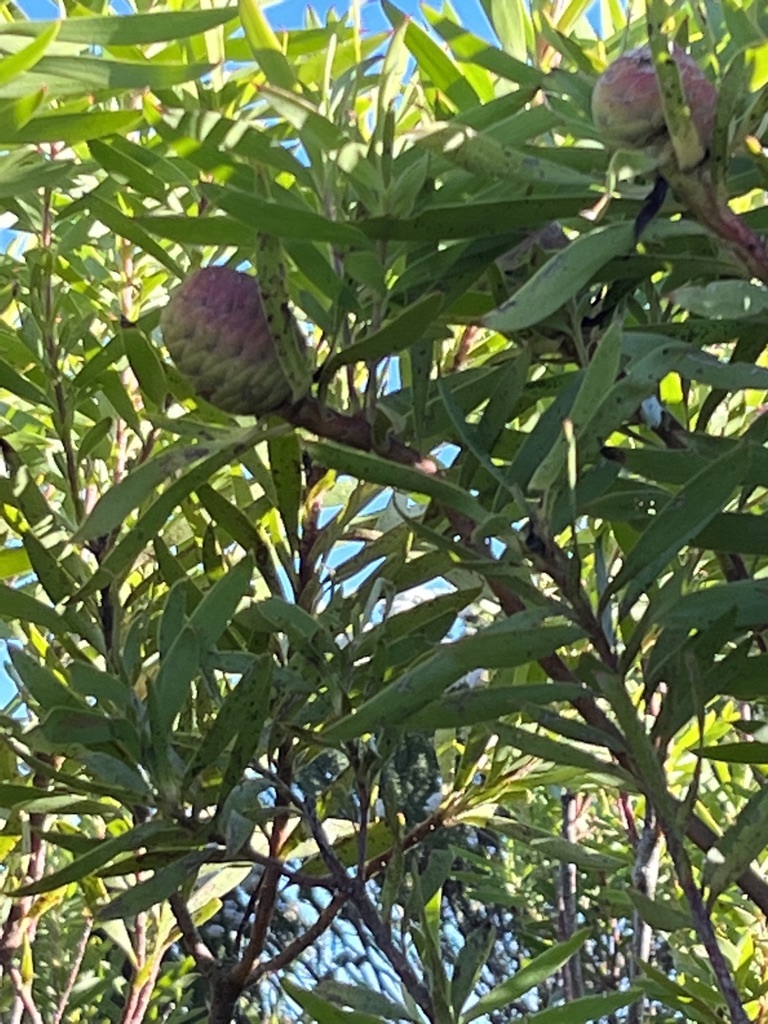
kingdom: Plantae
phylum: Tracheophyta
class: Magnoliopsida
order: Proteales
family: Proteaceae
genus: Leucadendron
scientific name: Leucadendron coniferum
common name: Dune conebush
